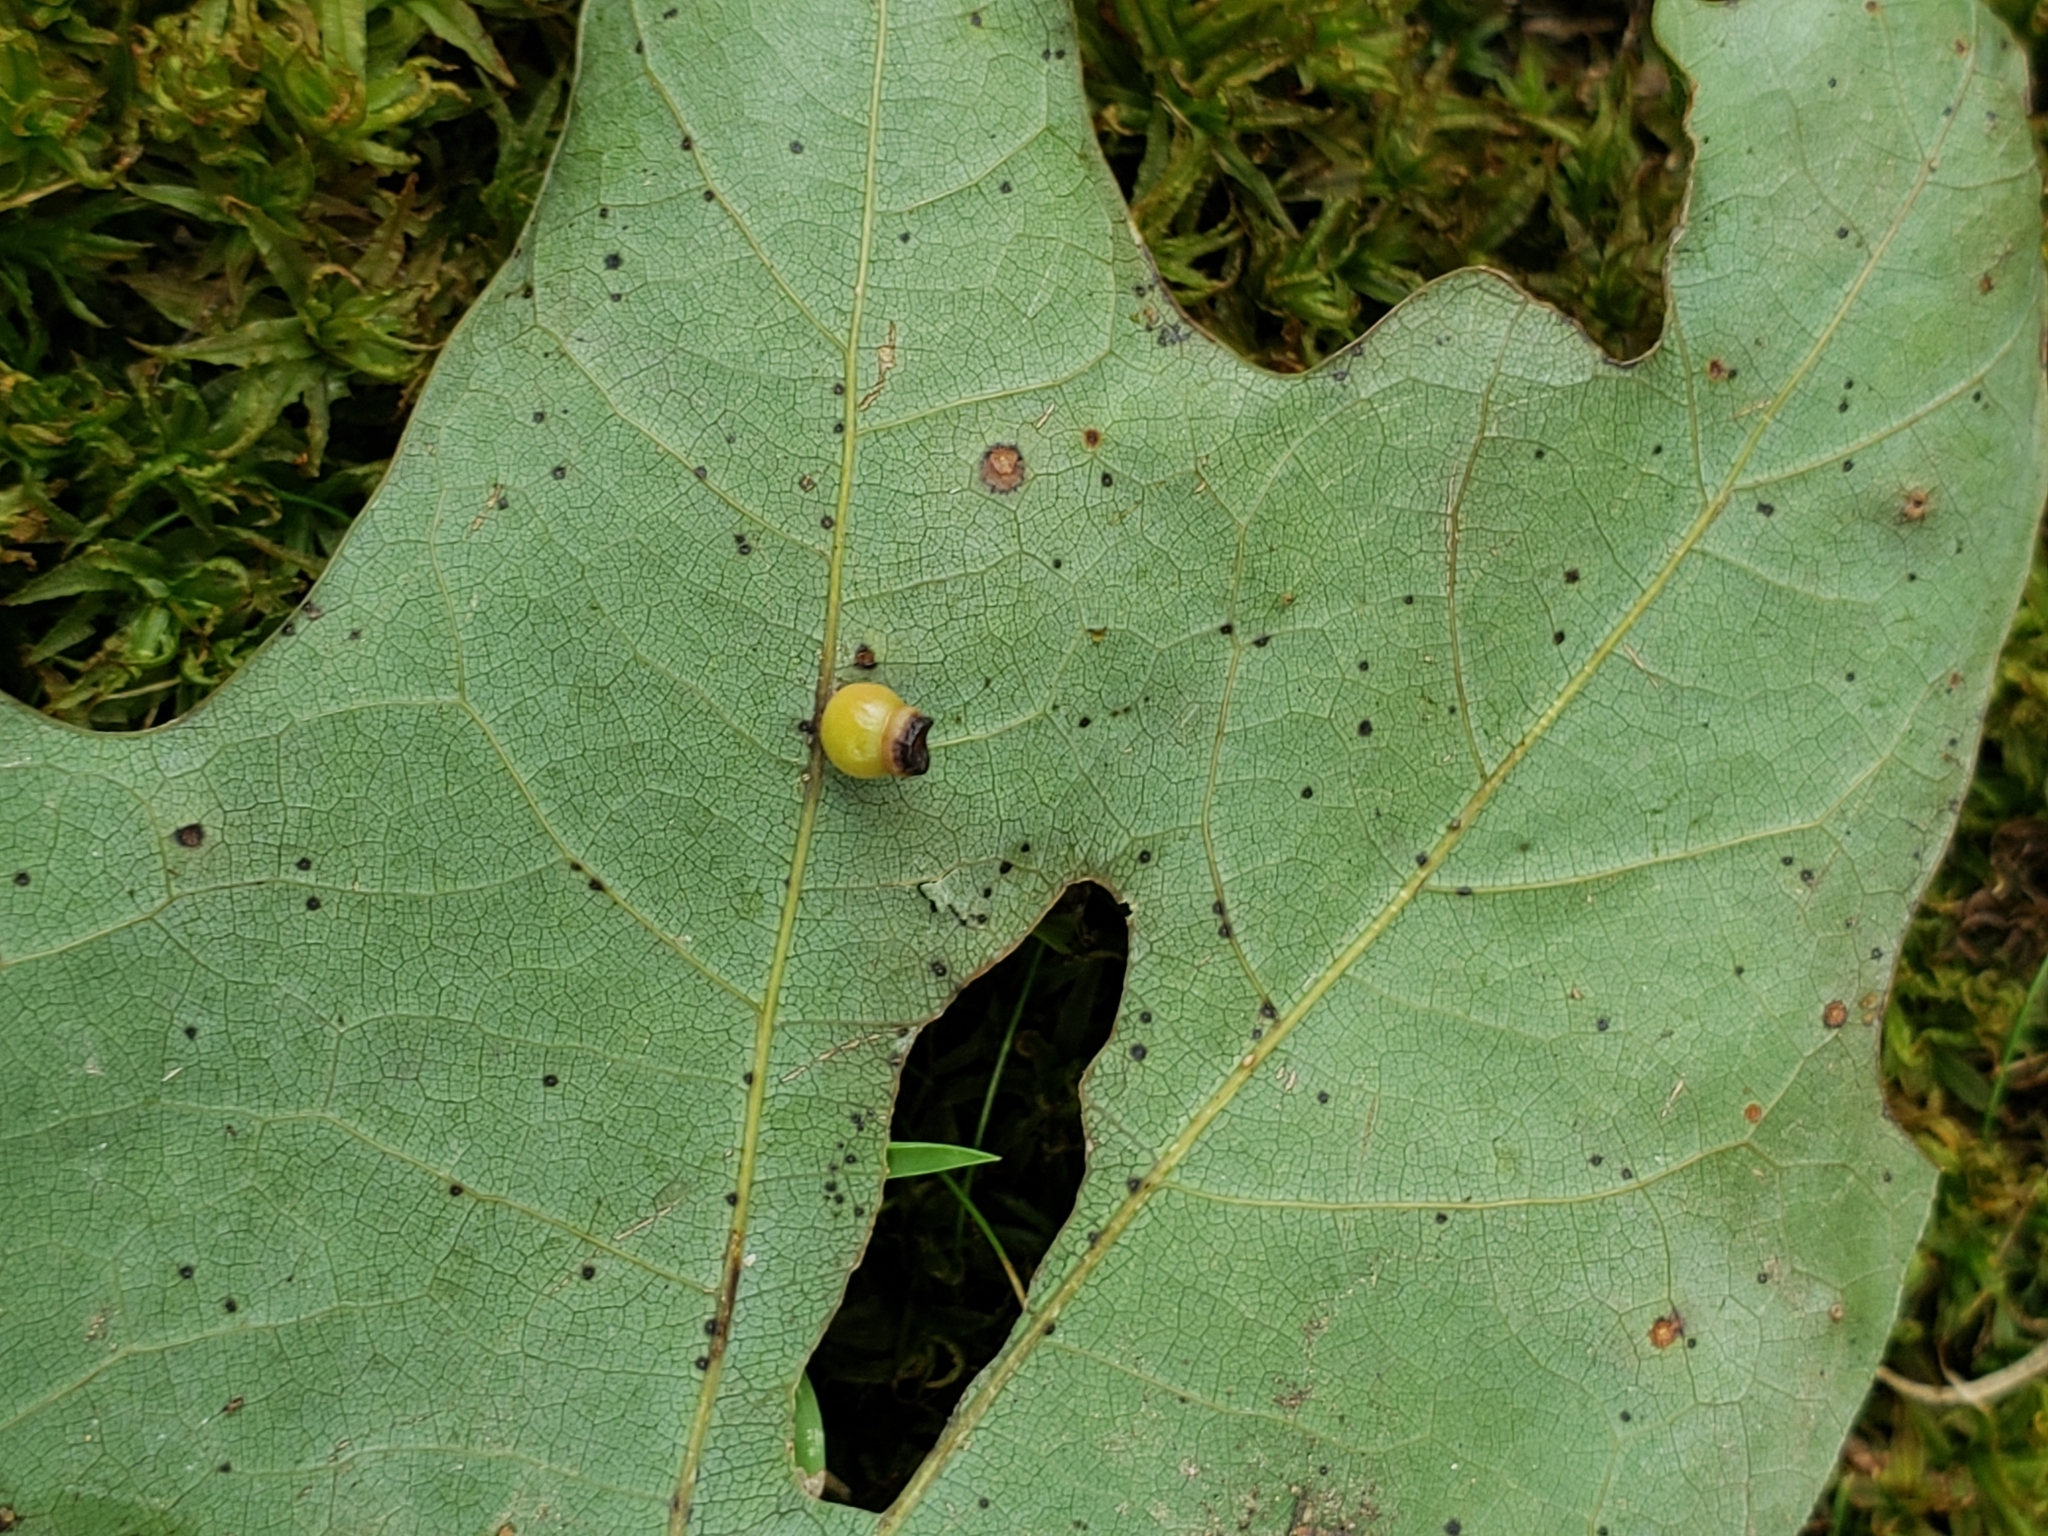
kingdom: Animalia
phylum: Arthropoda
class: Insecta
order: Hymenoptera
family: Cynipidae
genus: Kokkocynips
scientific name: Kokkocynips rileyi
